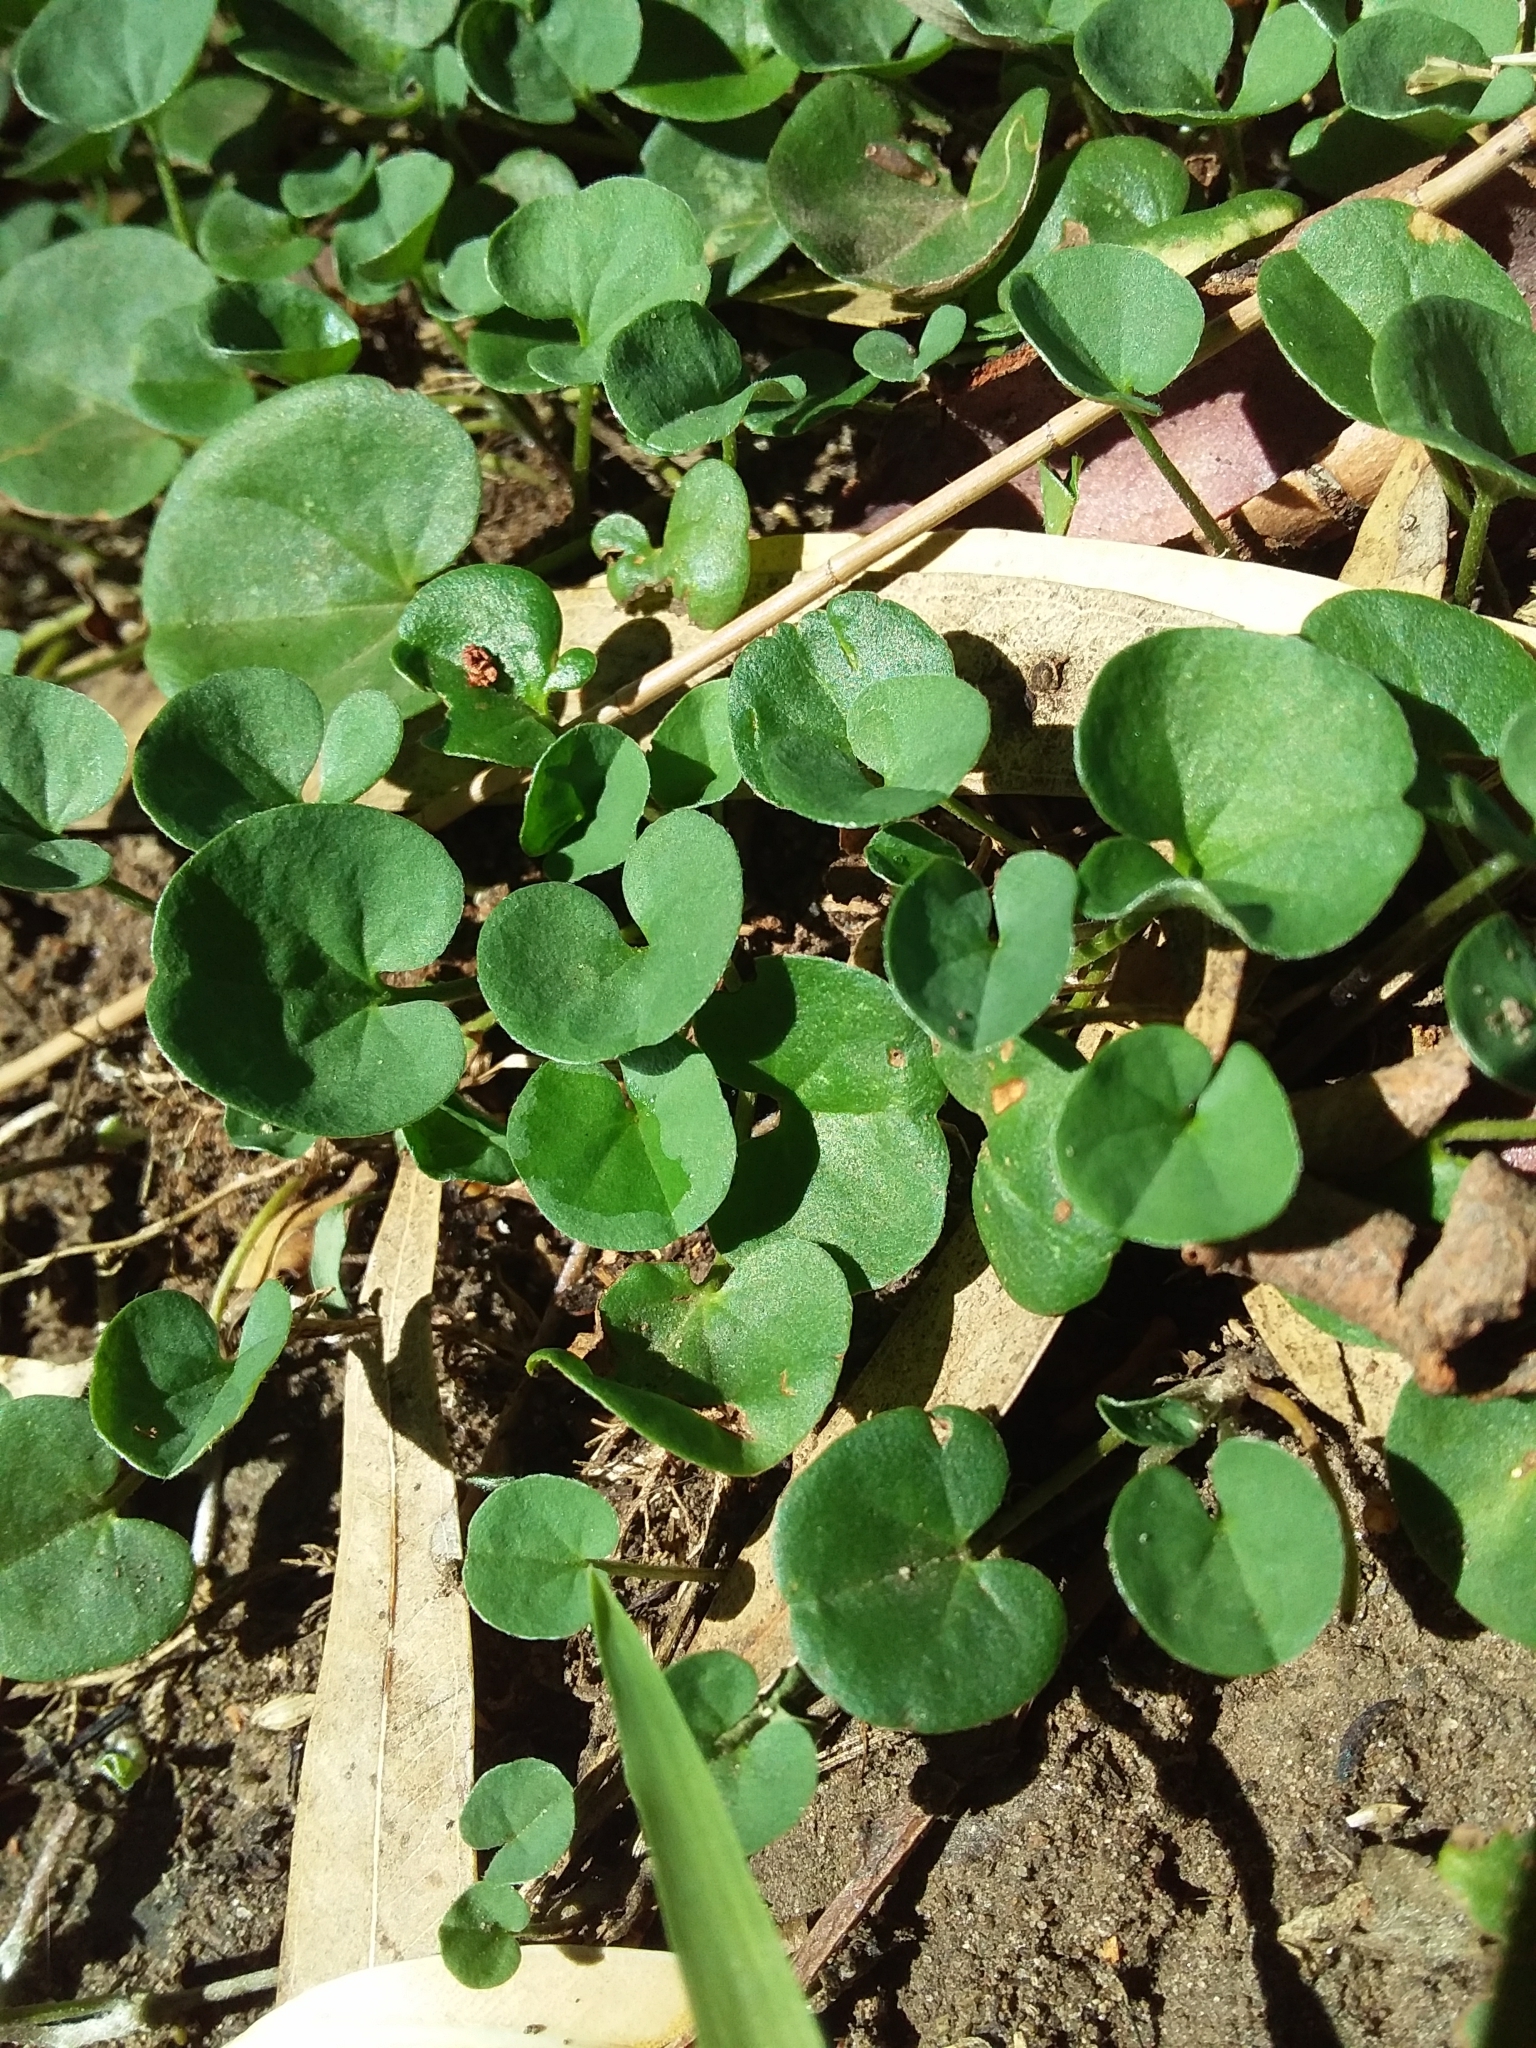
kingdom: Plantae
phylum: Tracheophyta
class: Magnoliopsida
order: Solanales
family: Convolvulaceae
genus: Dichondra
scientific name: Dichondra repens
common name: Kidneyweed
